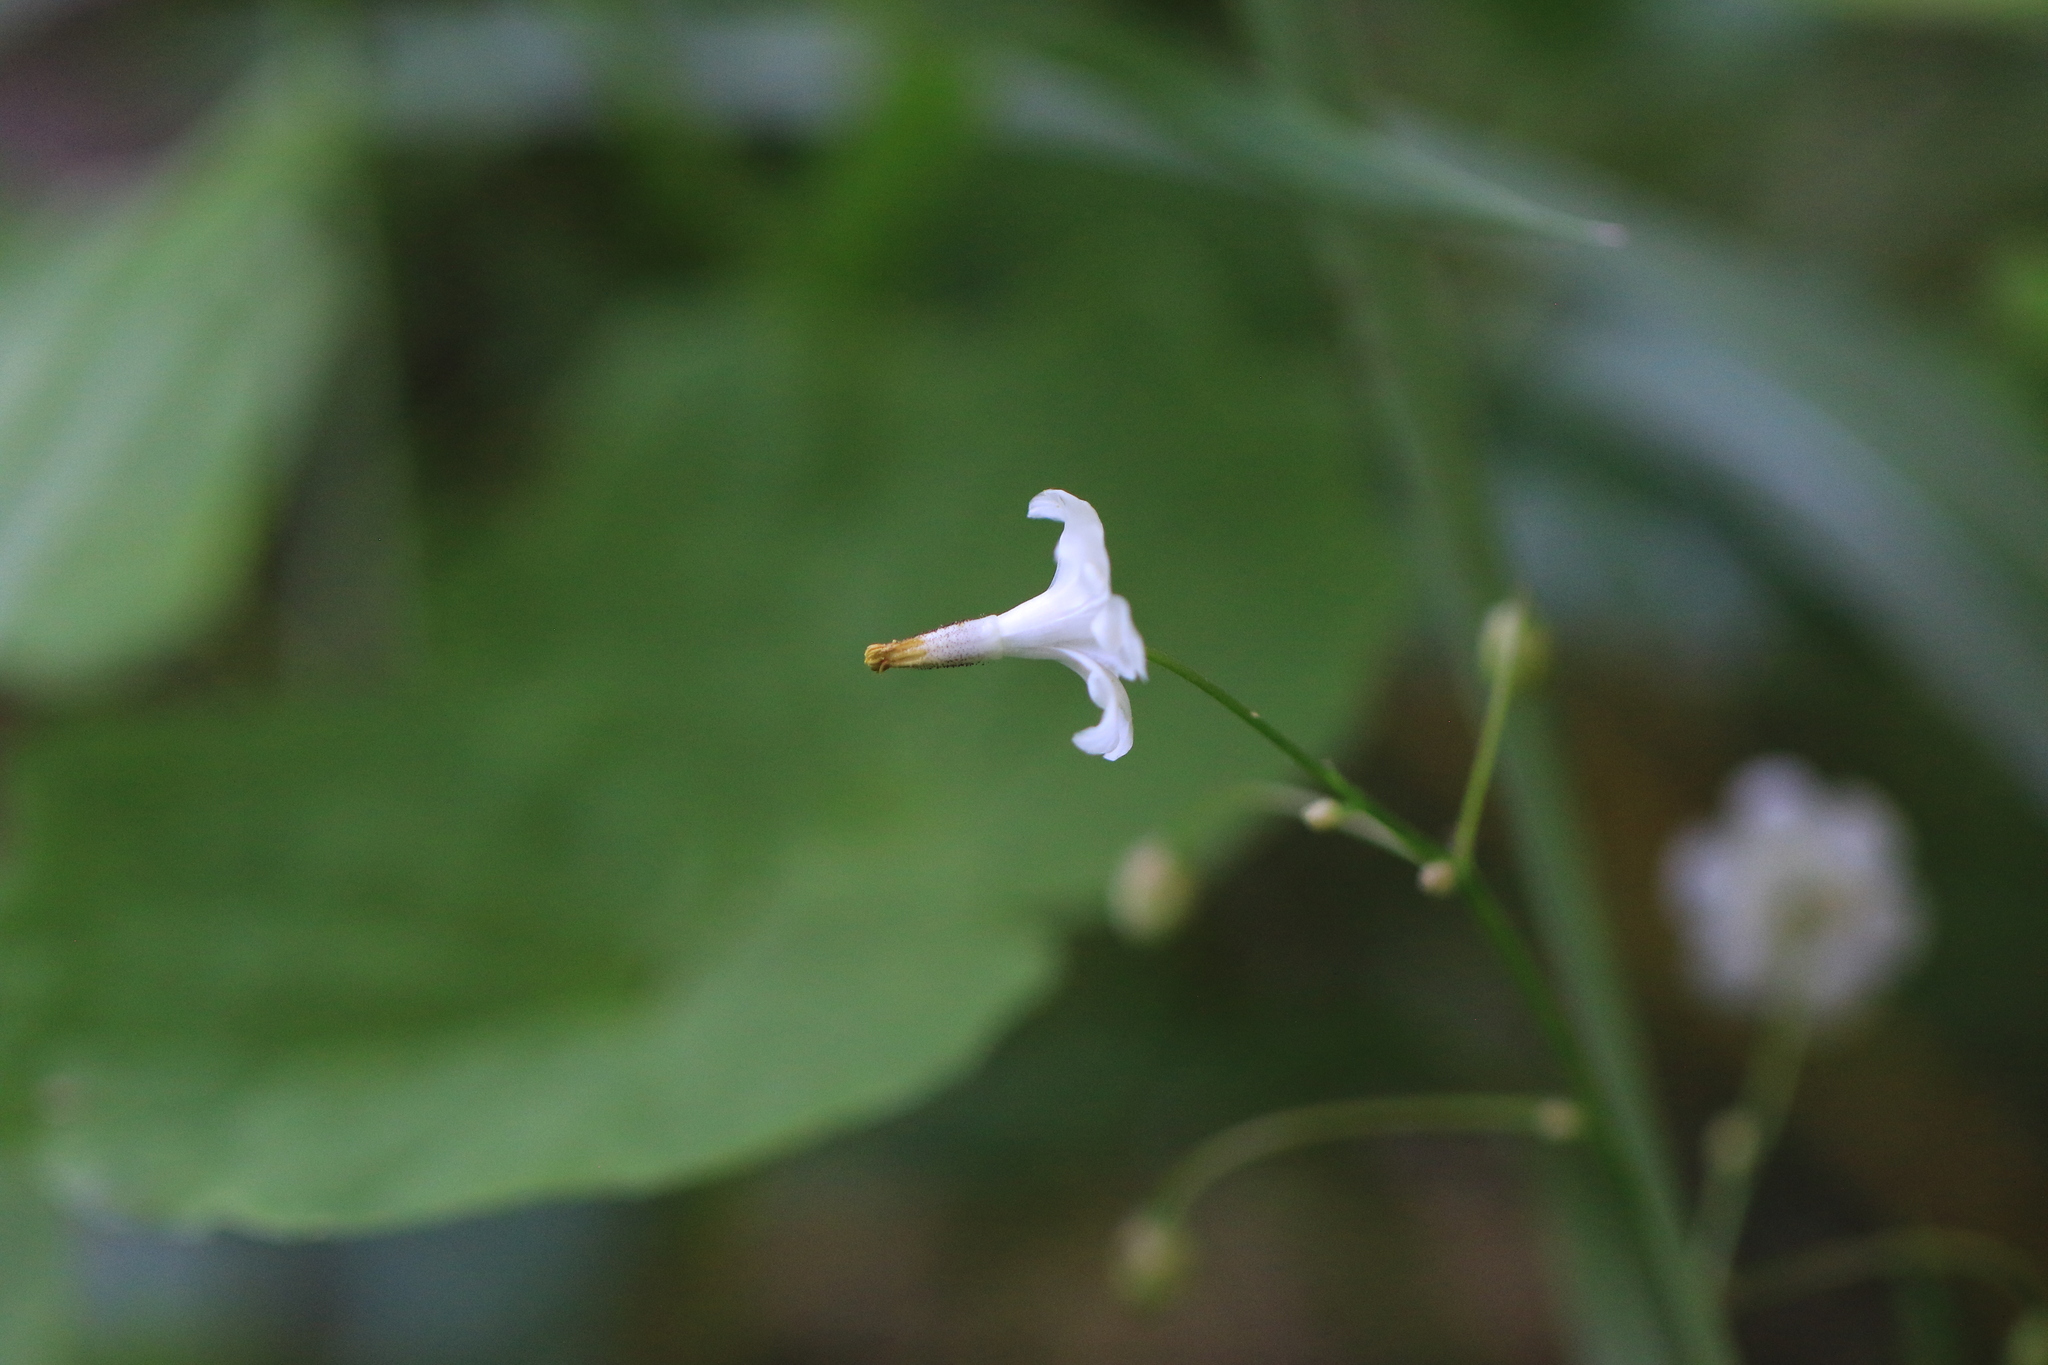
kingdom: Plantae
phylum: Tracheophyta
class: Magnoliopsida
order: Ranunculales
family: Berberidaceae
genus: Vancouveria
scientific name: Vancouveria hexandra
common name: Northern inside-out-flower
